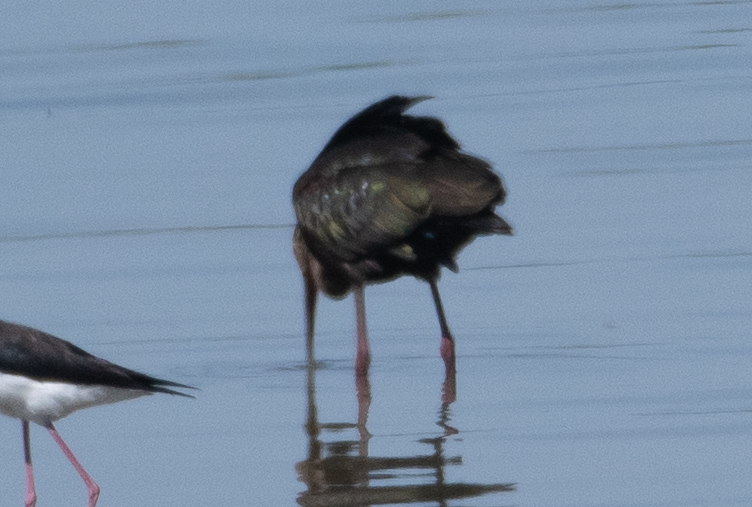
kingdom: Animalia
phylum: Chordata
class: Aves
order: Pelecaniformes
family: Threskiornithidae
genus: Plegadis
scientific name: Plegadis chihi
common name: White-faced ibis
